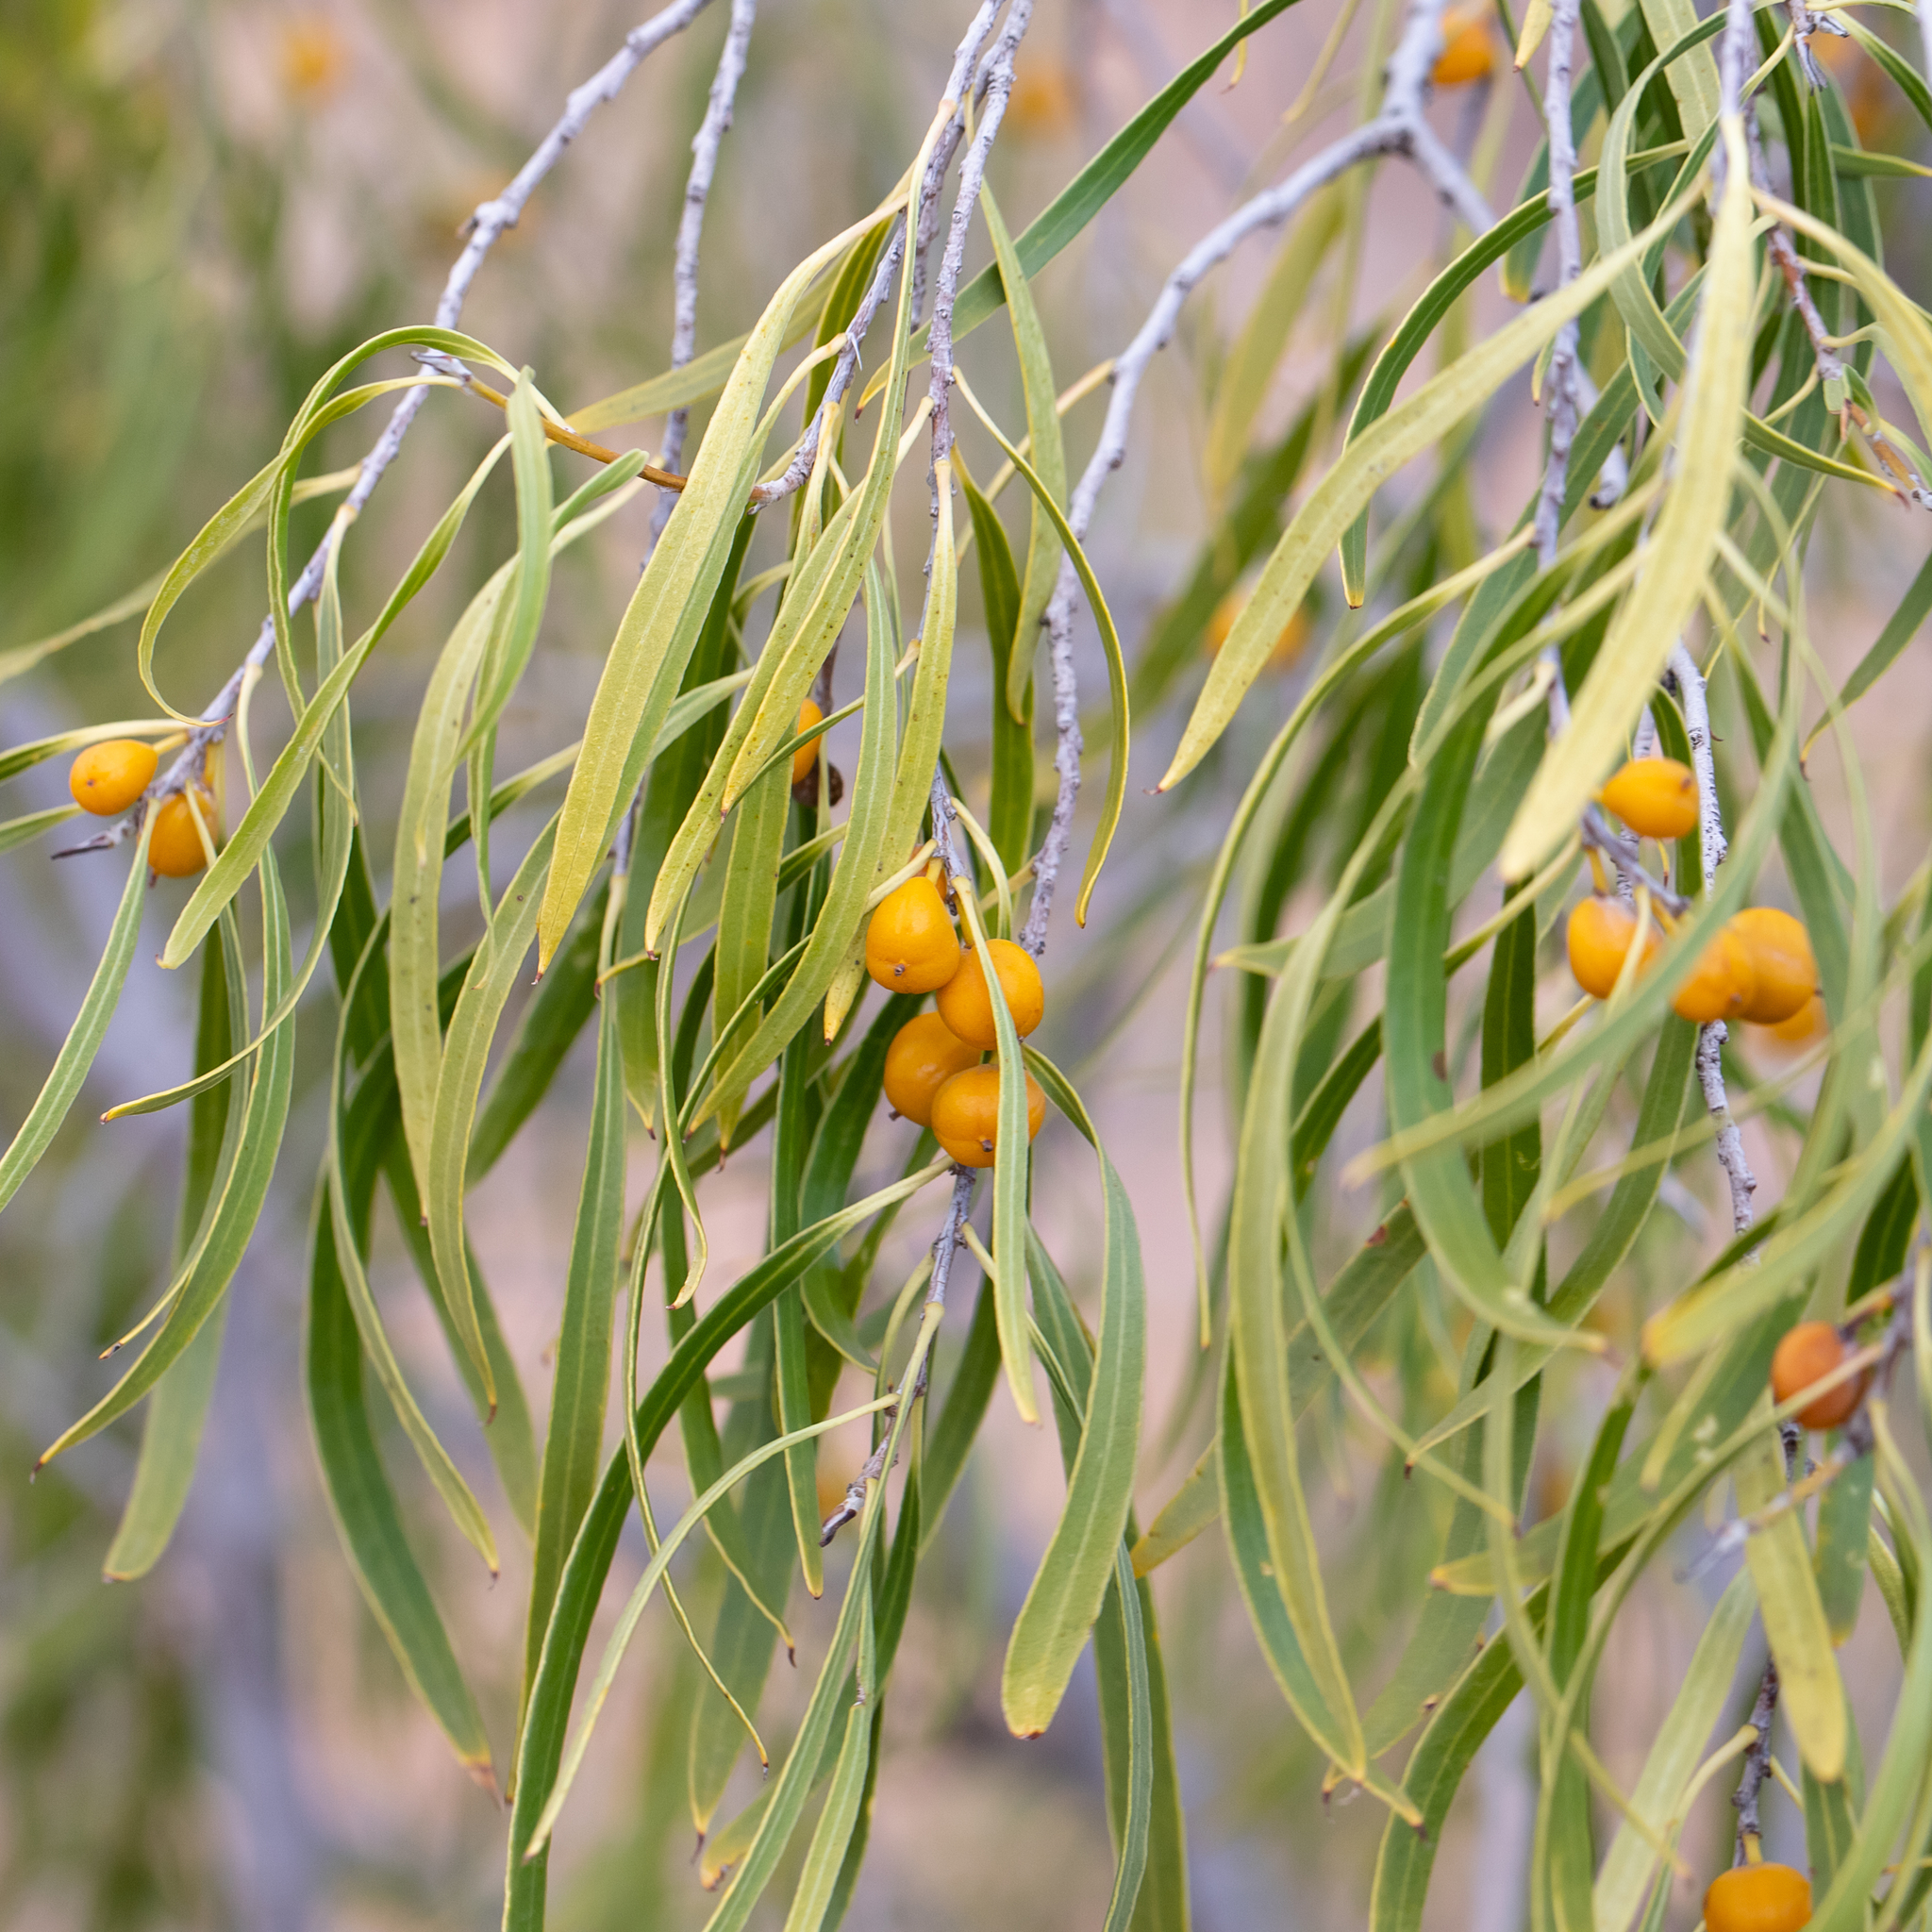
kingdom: Plantae
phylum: Tracheophyta
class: Magnoliopsida
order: Apiales
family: Pittosporaceae
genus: Pittosporum
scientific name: Pittosporum angustifolium
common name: Weeping pittosporum
